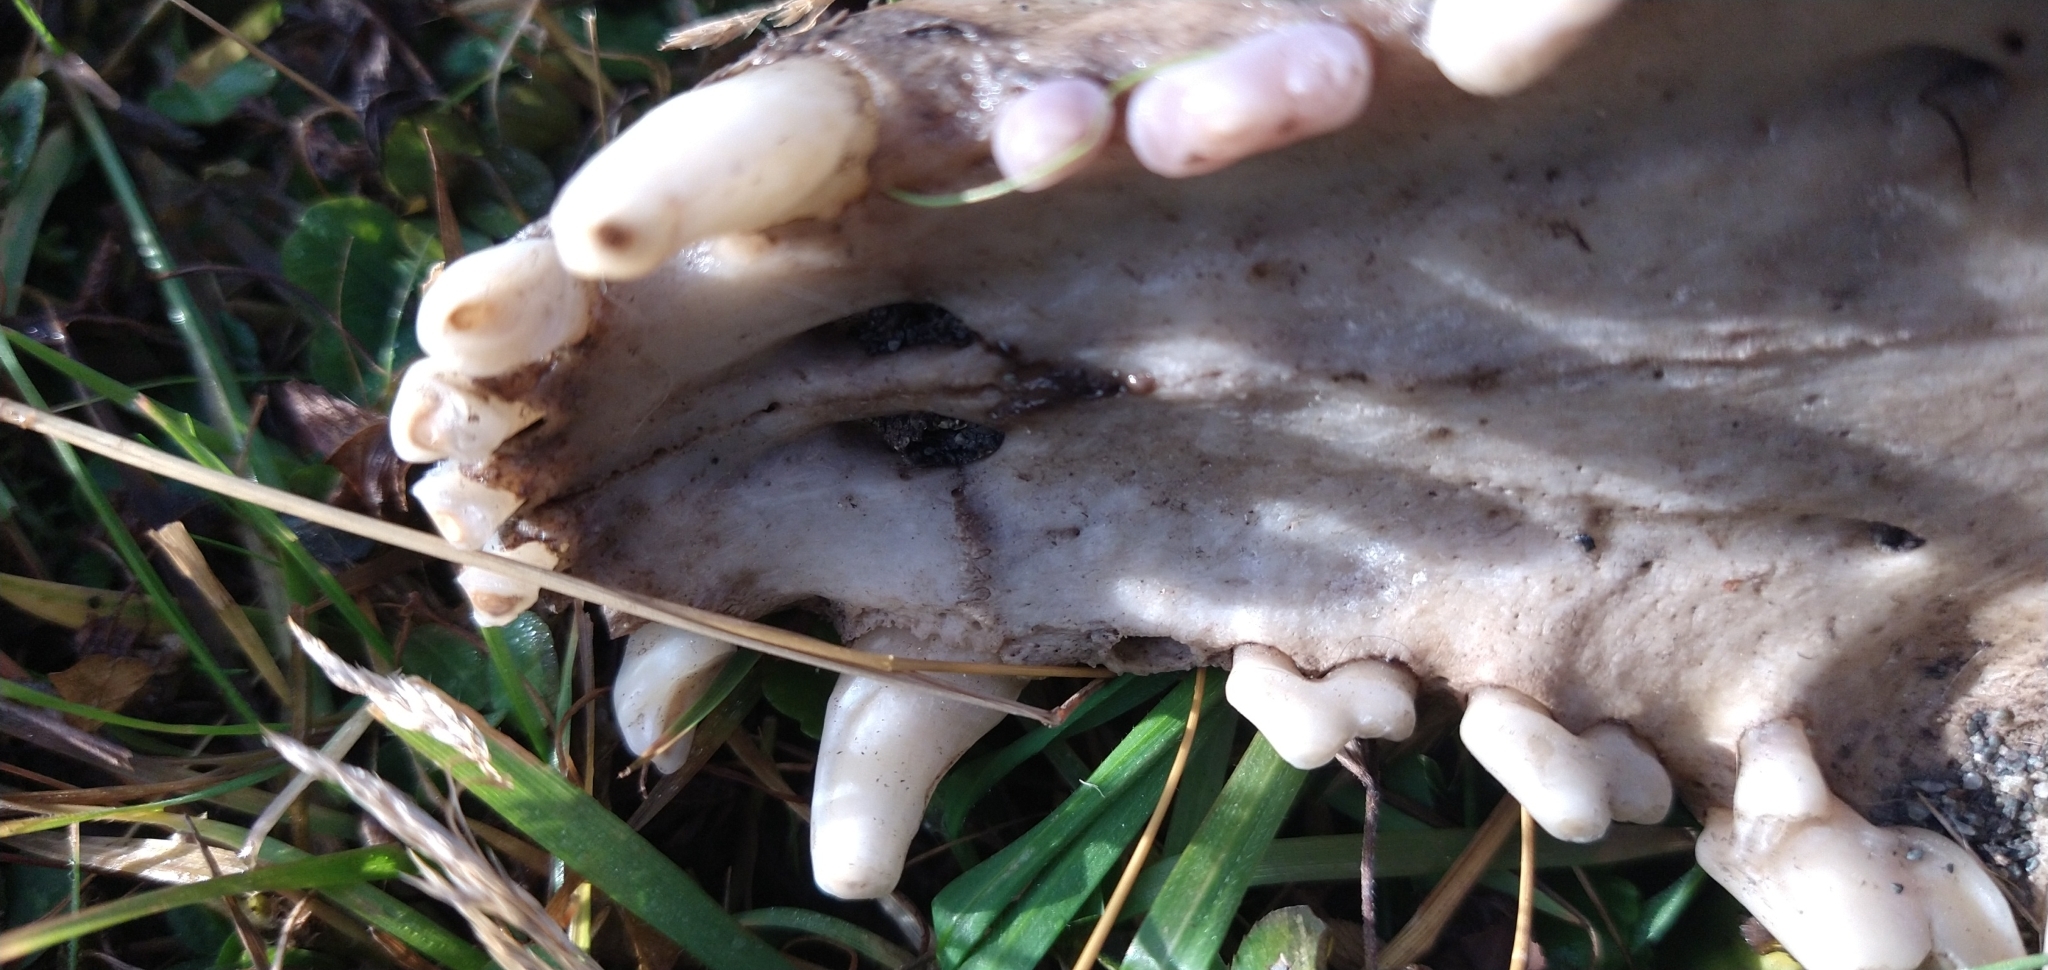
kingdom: Animalia
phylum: Chordata
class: Mammalia
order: Carnivora
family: Canidae
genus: Canis
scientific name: Canis lupus
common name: Gray wolf
